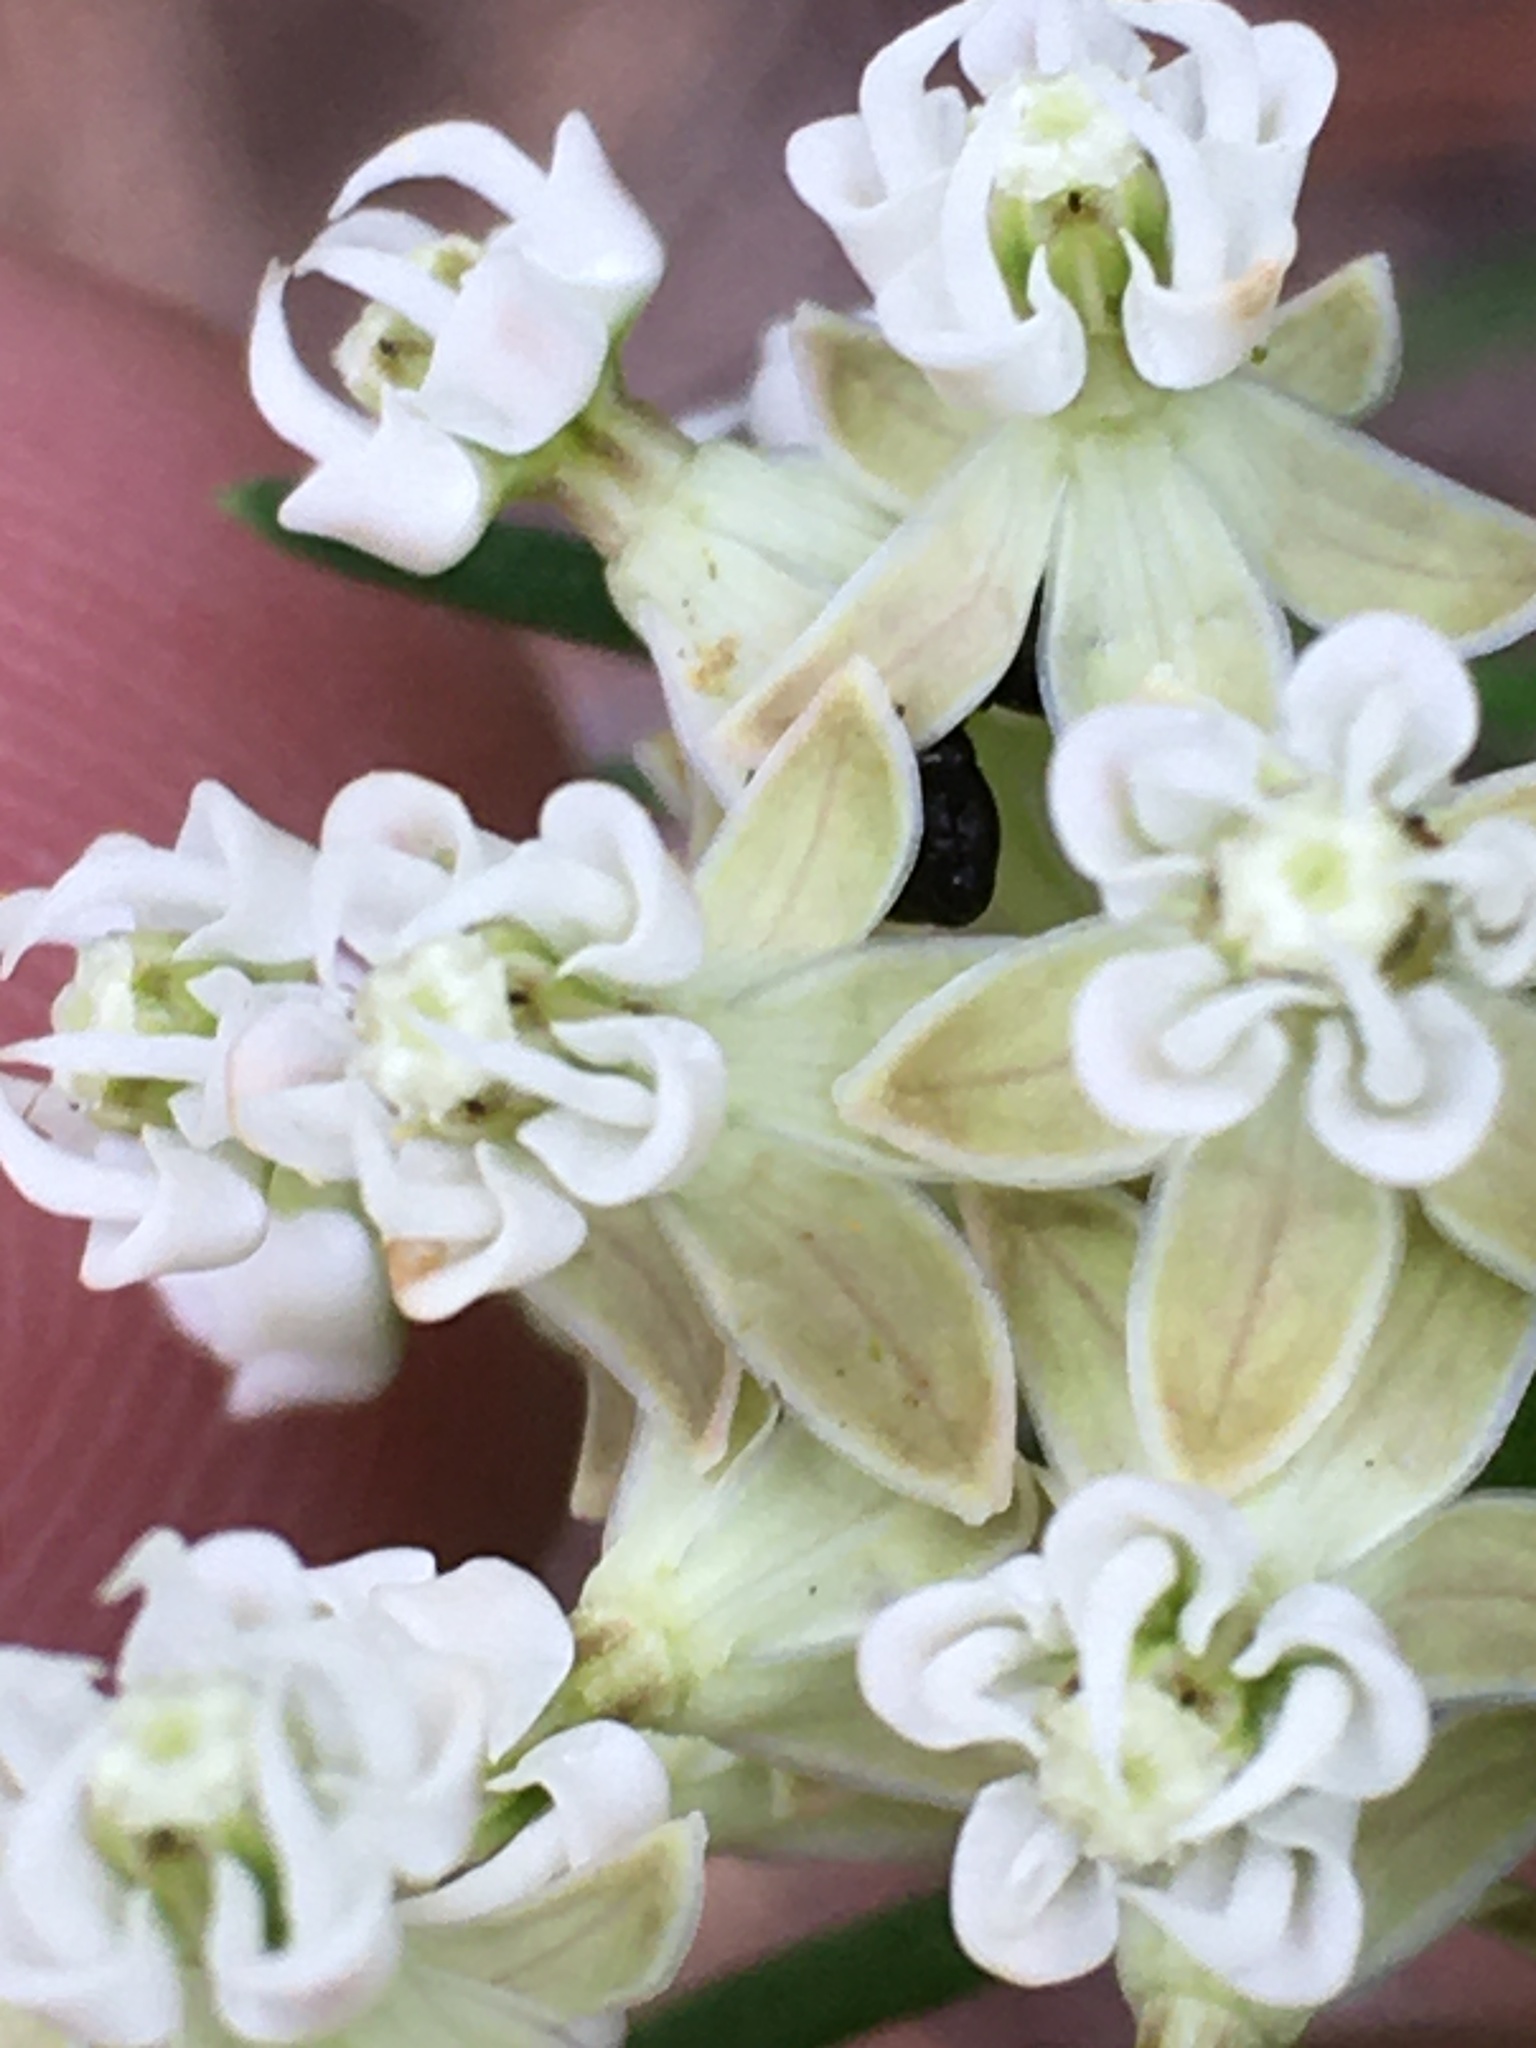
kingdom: Plantae
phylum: Tracheophyta
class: Magnoliopsida
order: Gentianales
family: Apocynaceae
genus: Asclepias
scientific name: Asclepias verticillata
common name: Eastern whorled milkweed
